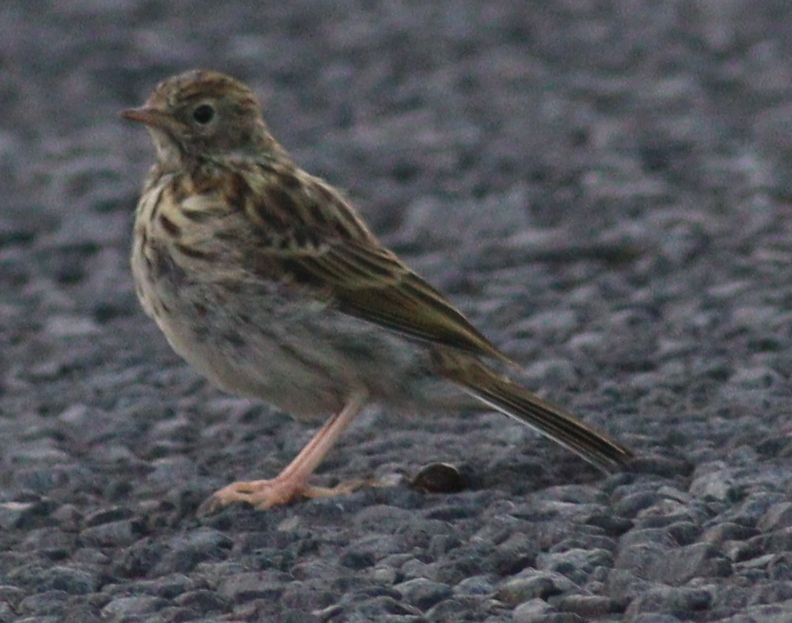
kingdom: Animalia
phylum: Chordata
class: Aves
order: Passeriformes
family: Motacillidae
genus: Anthus
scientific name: Anthus pratensis
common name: Meadow pipit
